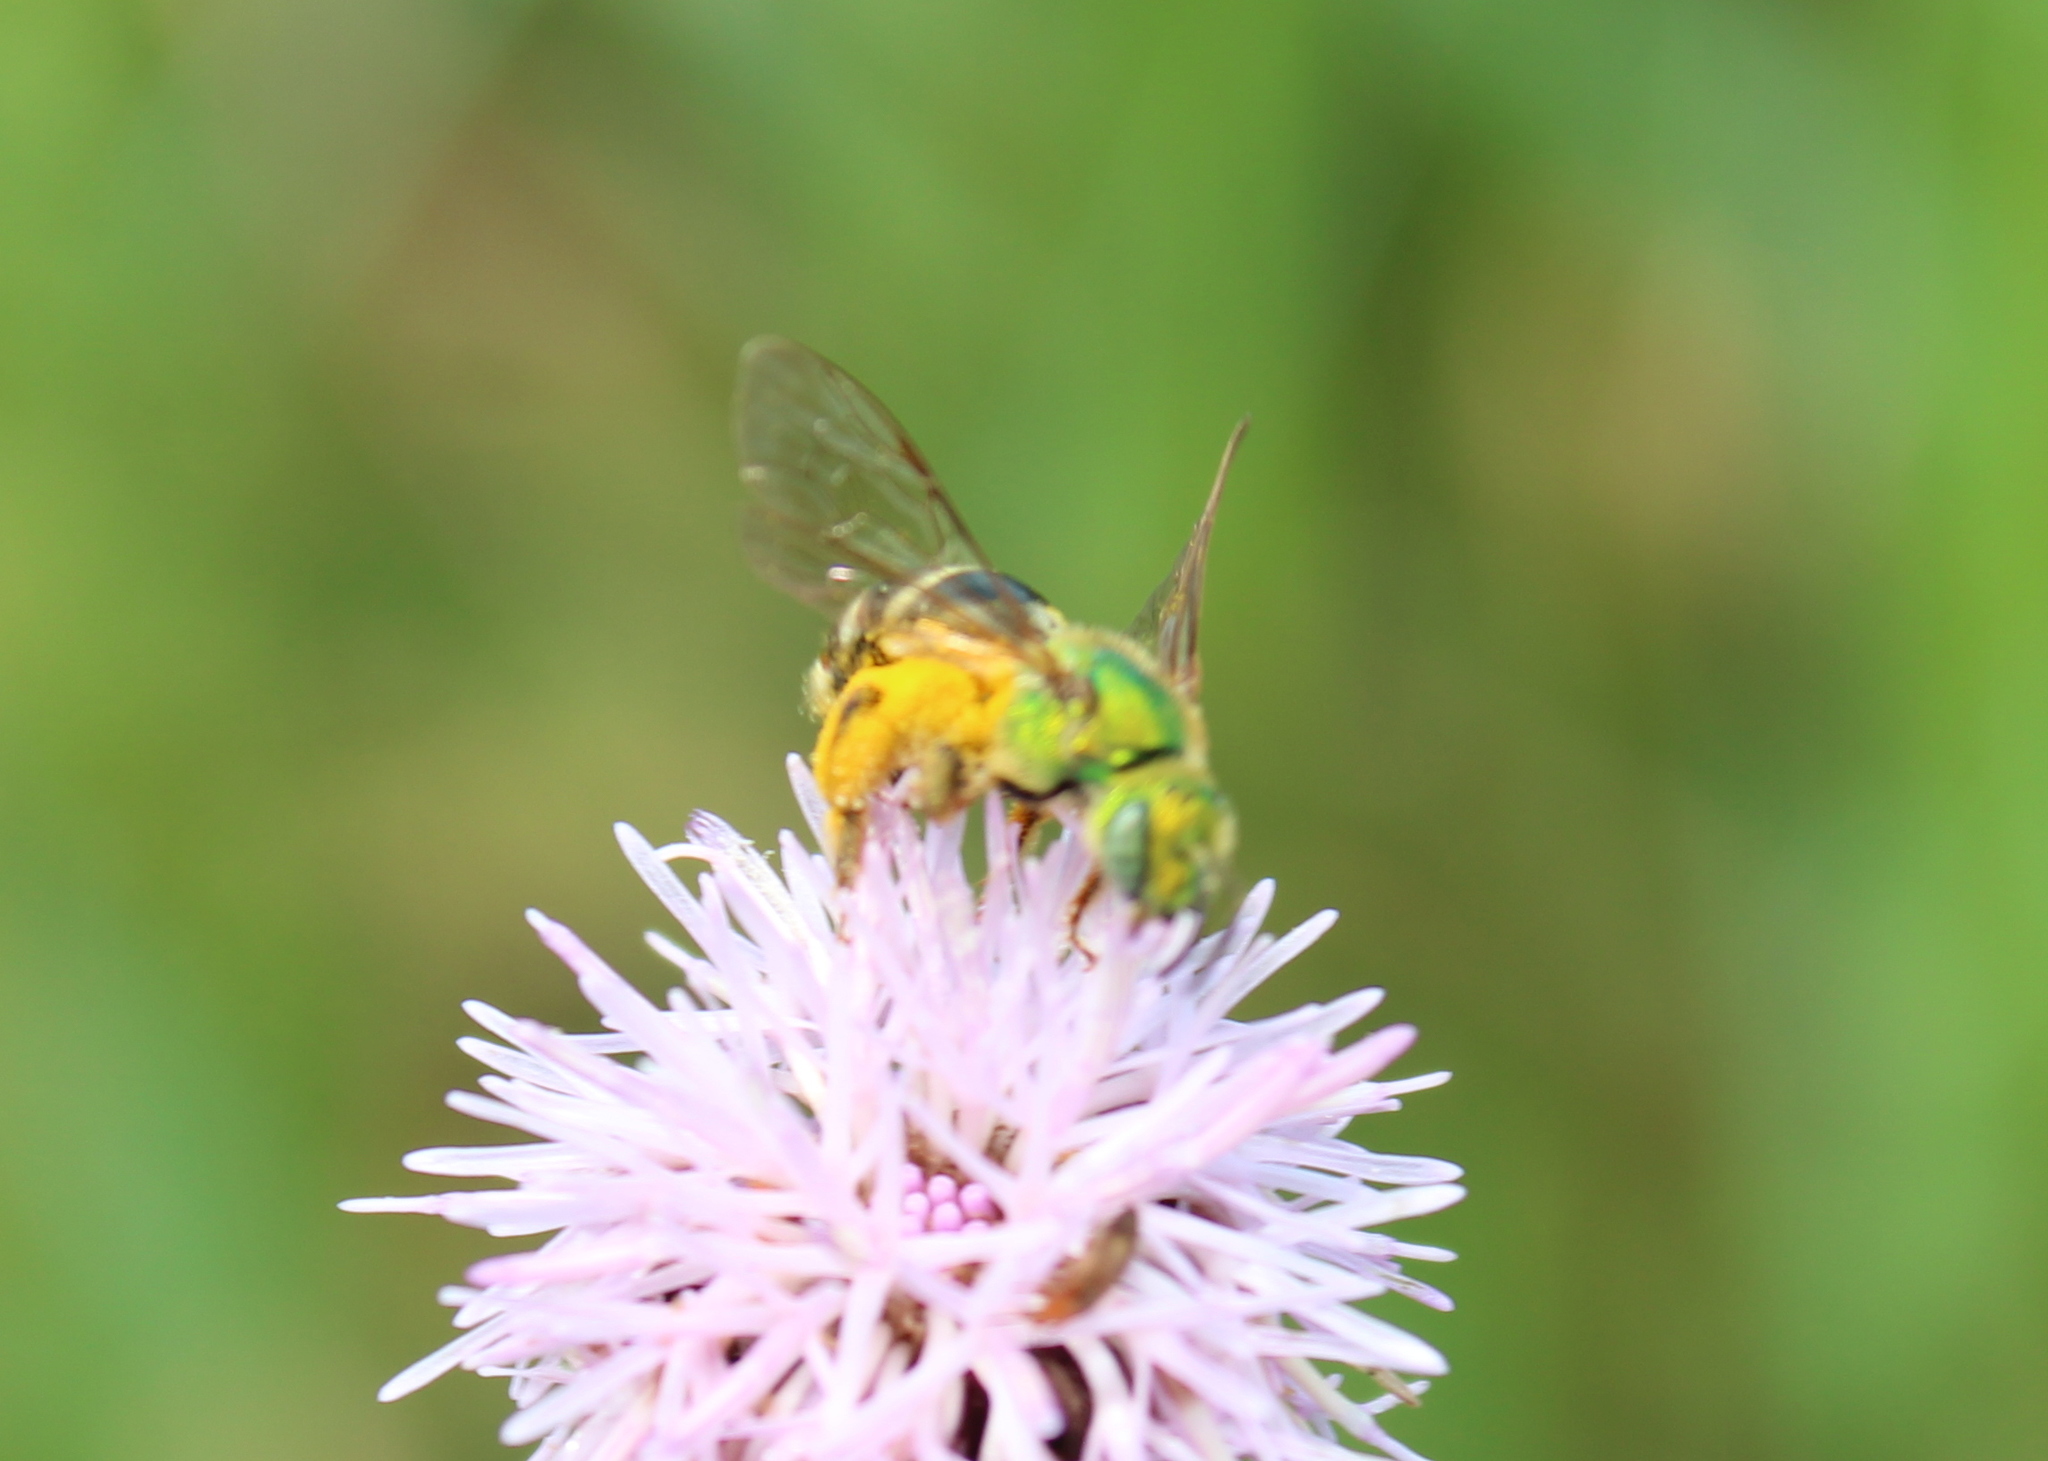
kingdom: Animalia
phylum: Arthropoda
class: Insecta
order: Hymenoptera
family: Halictidae
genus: Agapostemon
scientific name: Agapostemon virescens
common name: Bicolored striped sweat bee
